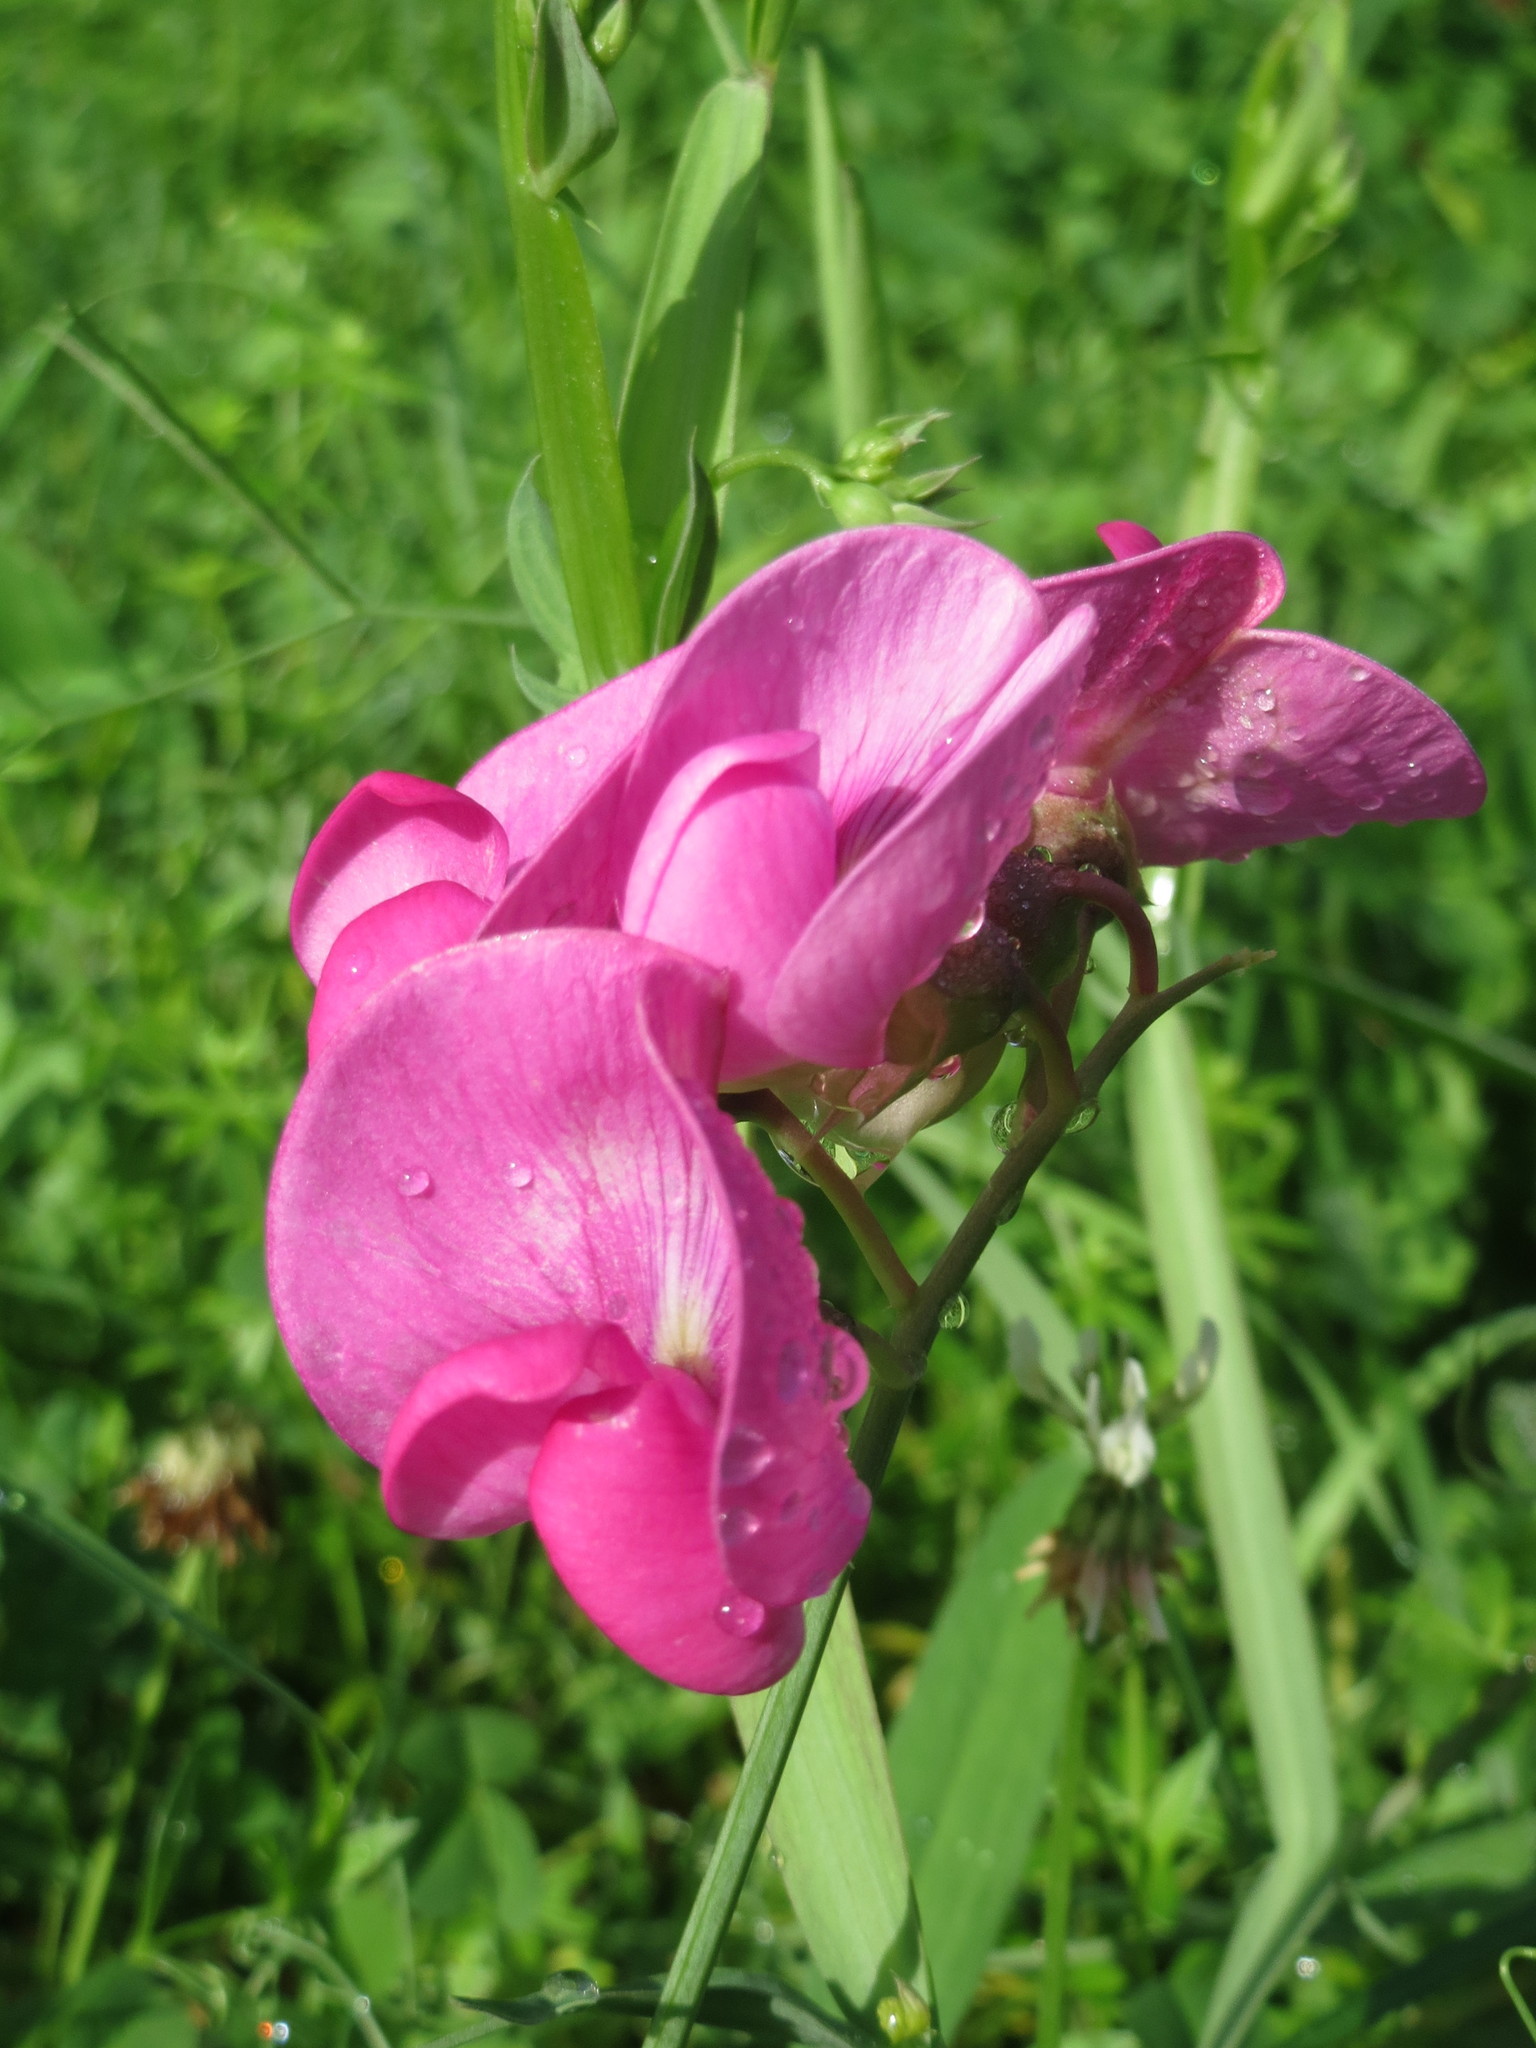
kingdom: Plantae
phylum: Tracheophyta
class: Magnoliopsida
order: Fabales
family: Fabaceae
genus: Lathyrus
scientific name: Lathyrus latifolius
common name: Perennial pea
